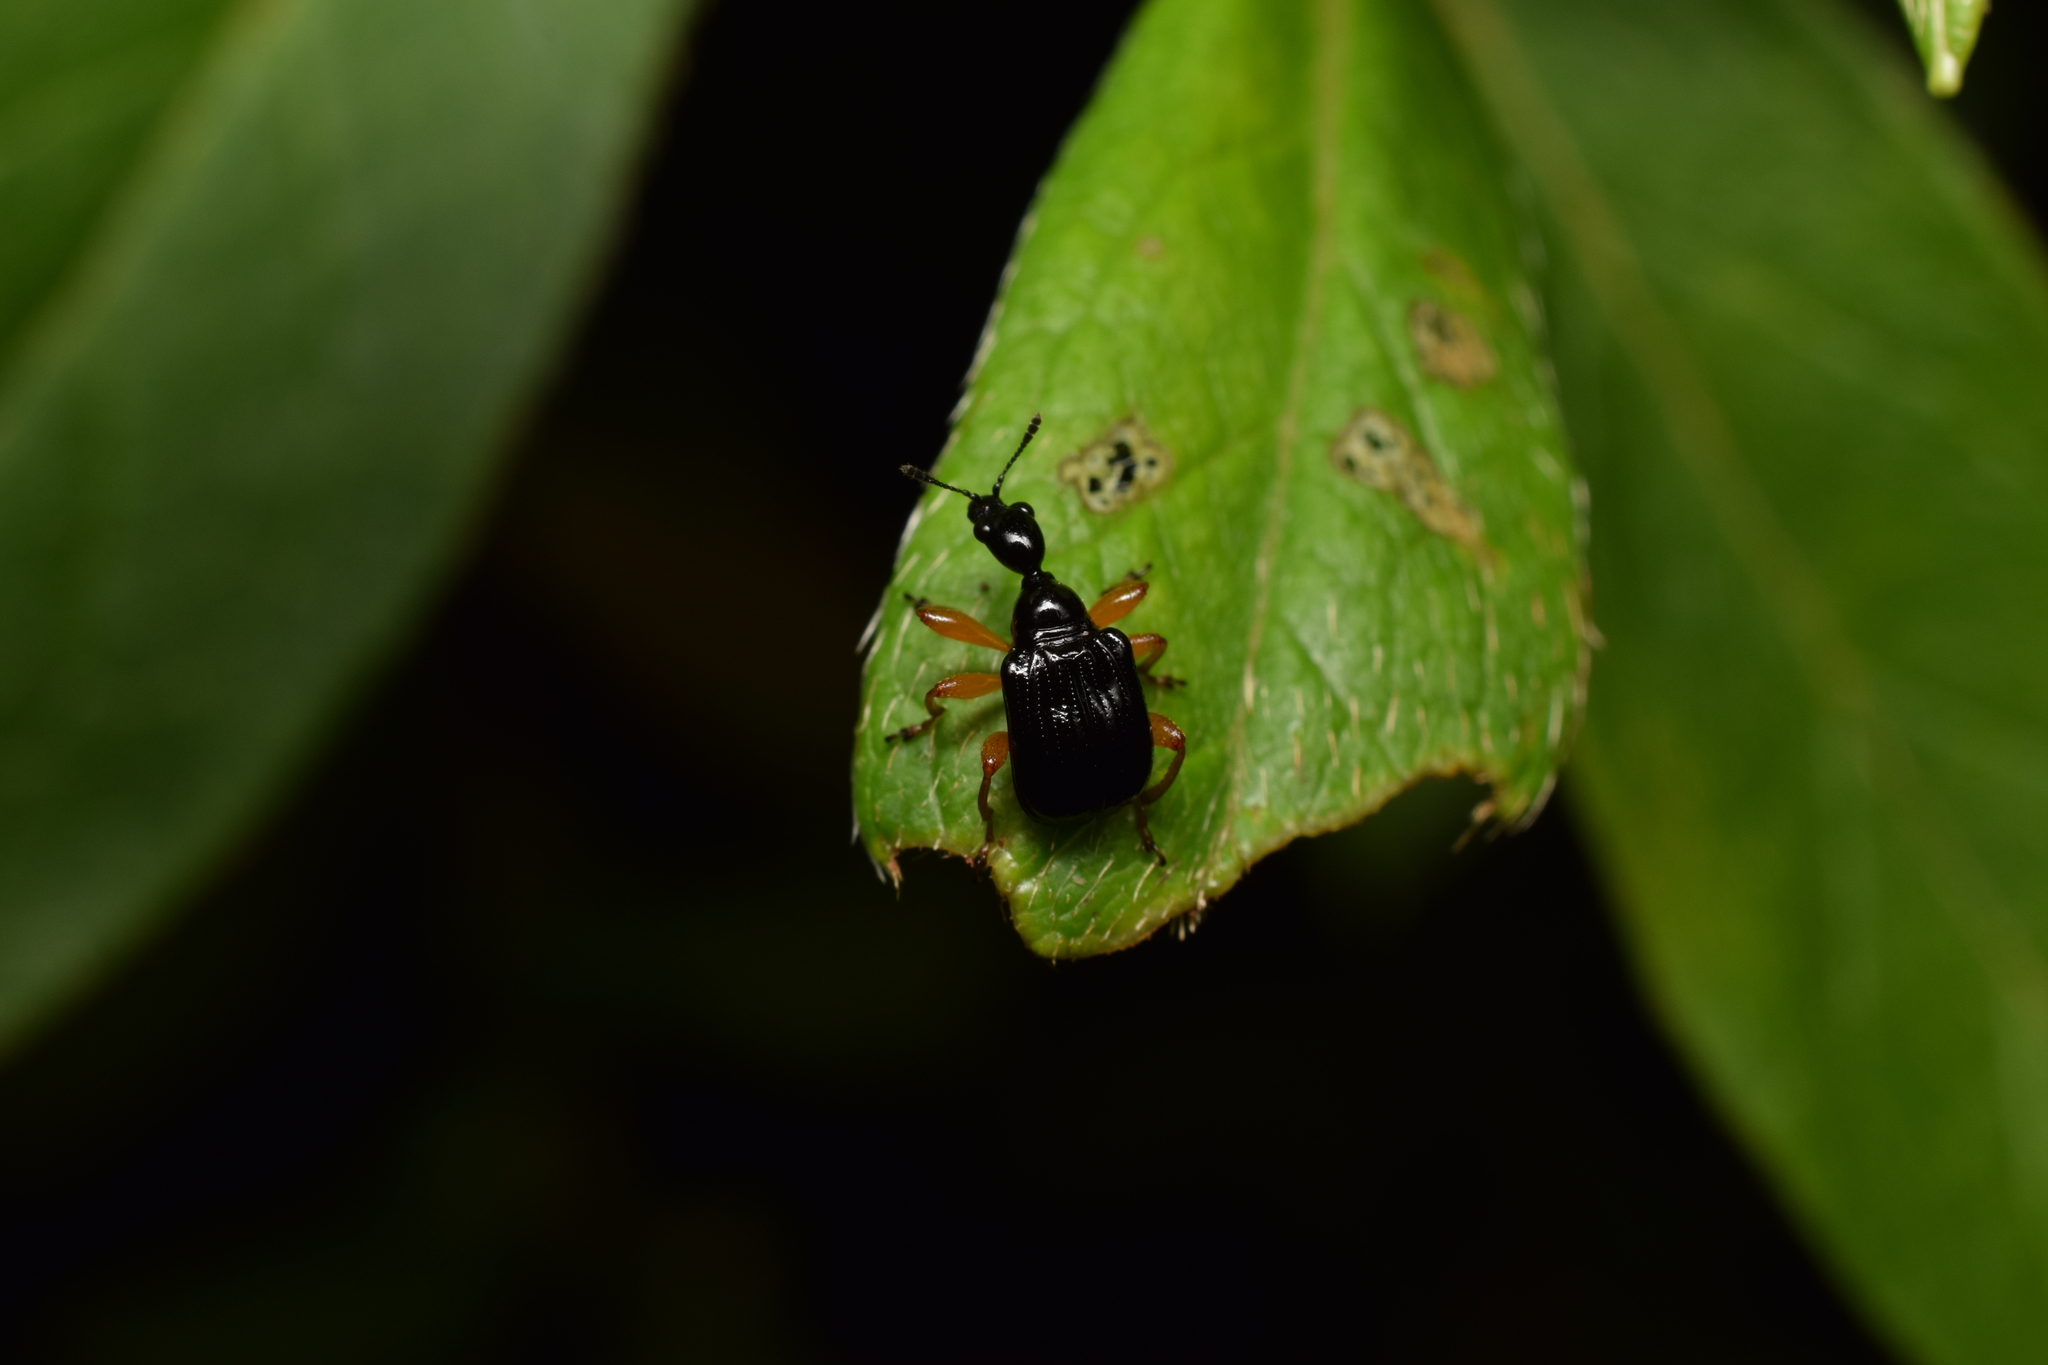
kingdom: Animalia
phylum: Arthropoda
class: Insecta
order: Coleoptera
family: Attelabidae
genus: Compsapoderus
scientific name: Compsapoderus erythrogaster
